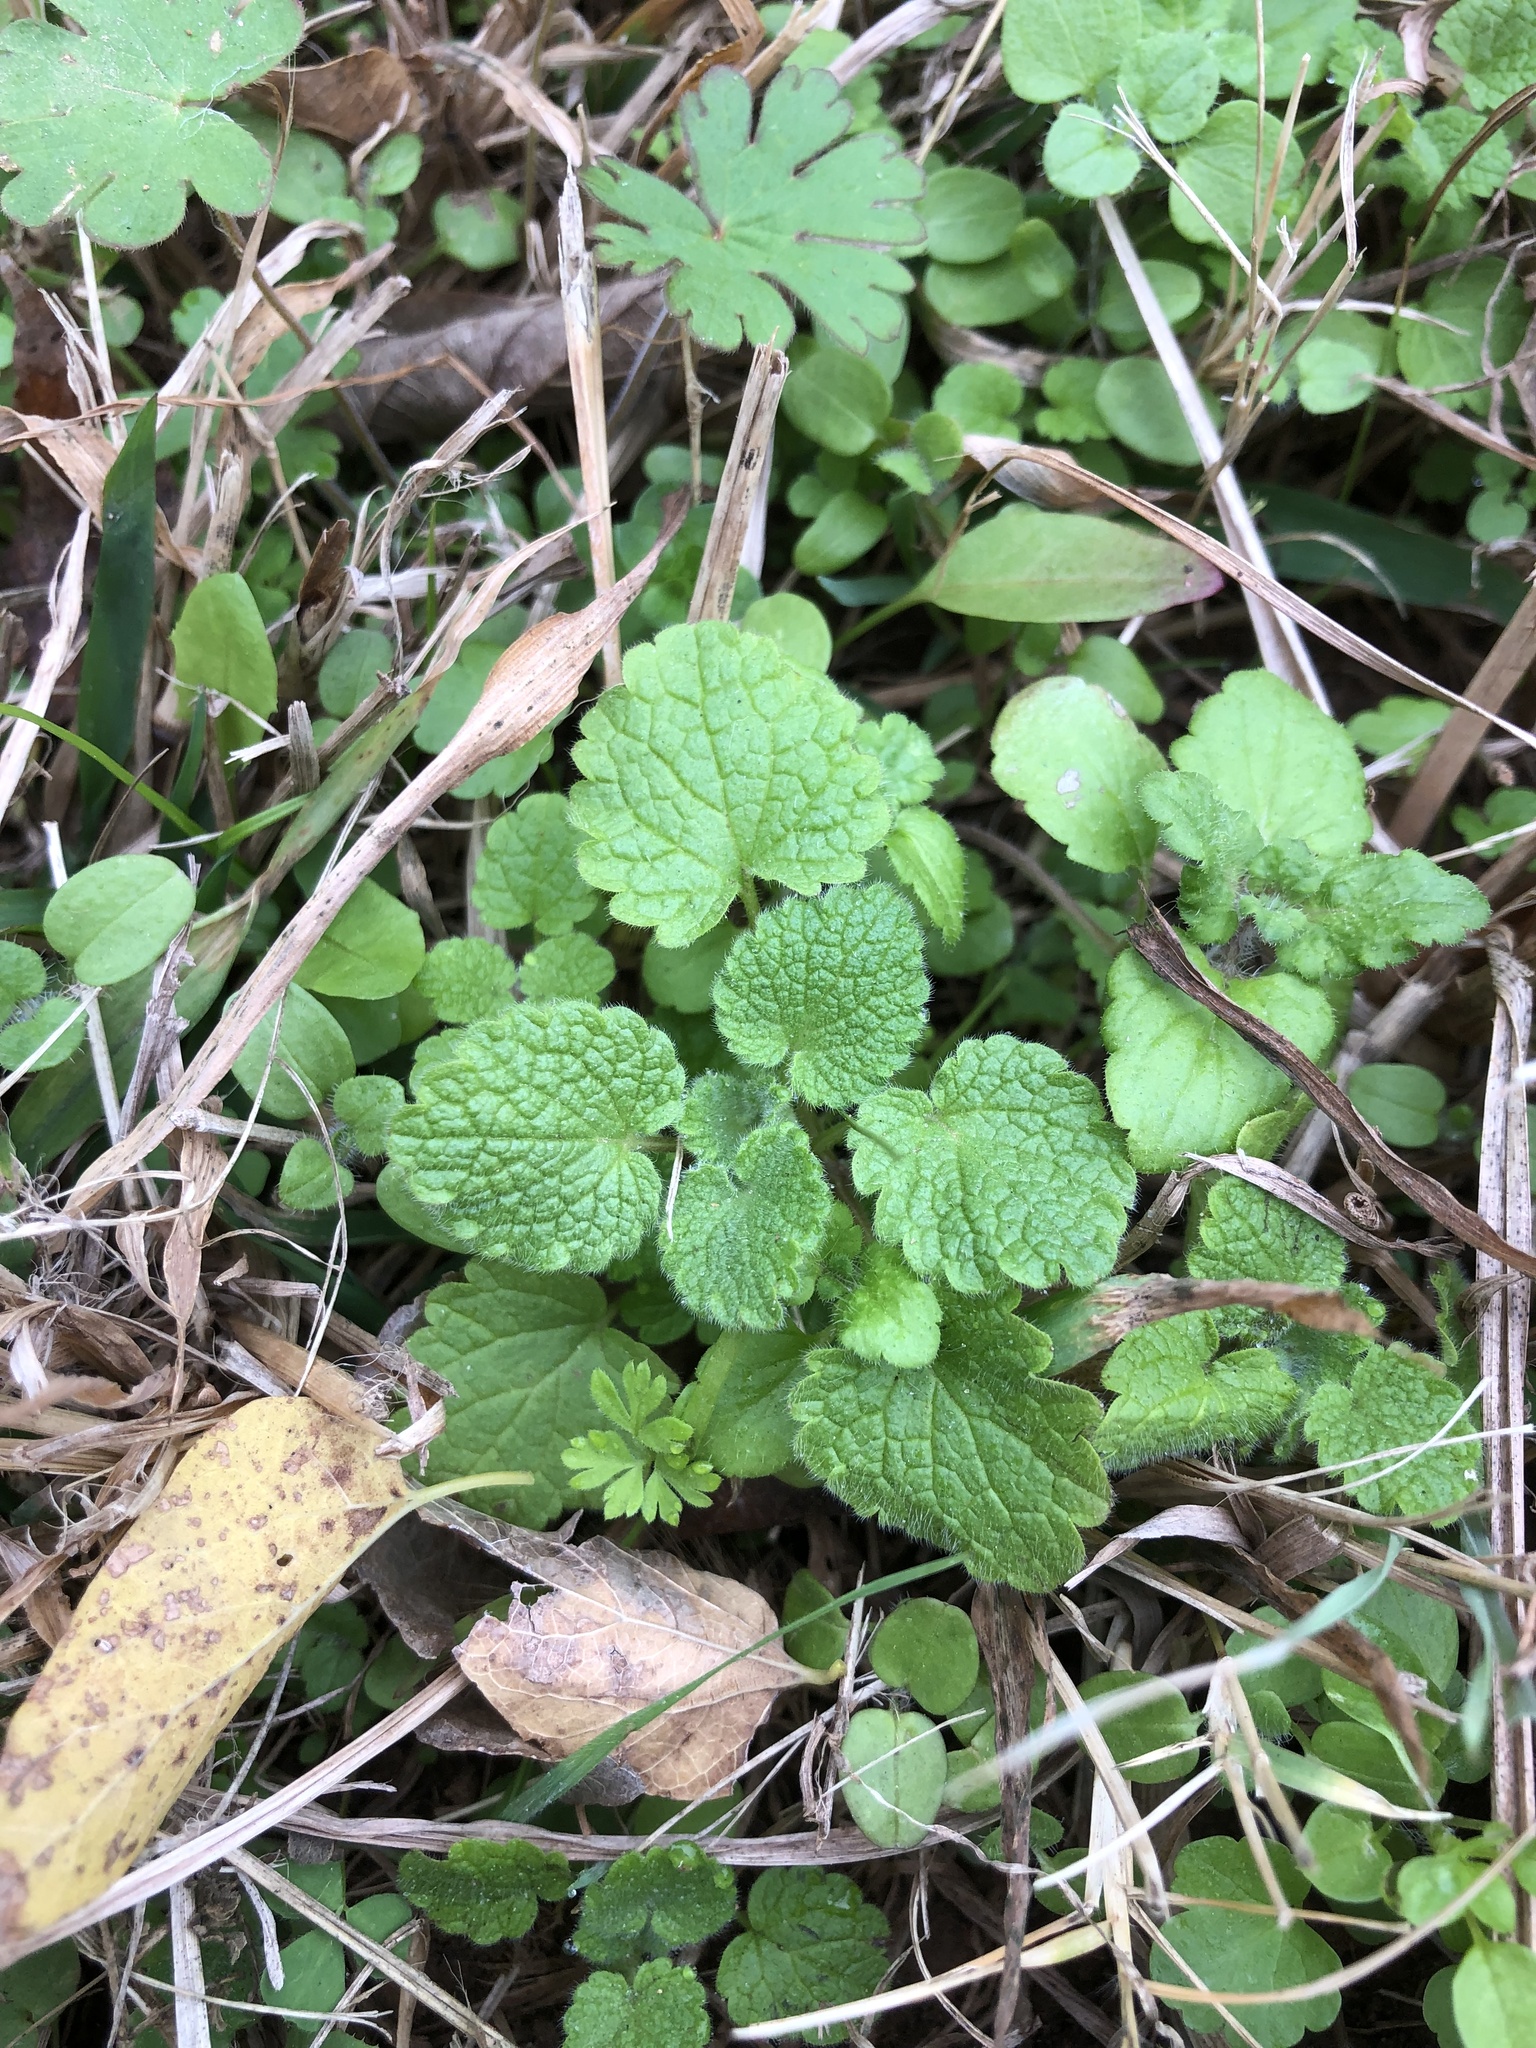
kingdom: Plantae
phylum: Tracheophyta
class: Magnoliopsida
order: Lamiales
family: Lamiaceae
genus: Lamium
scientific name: Lamium purpureum
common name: Red dead-nettle
